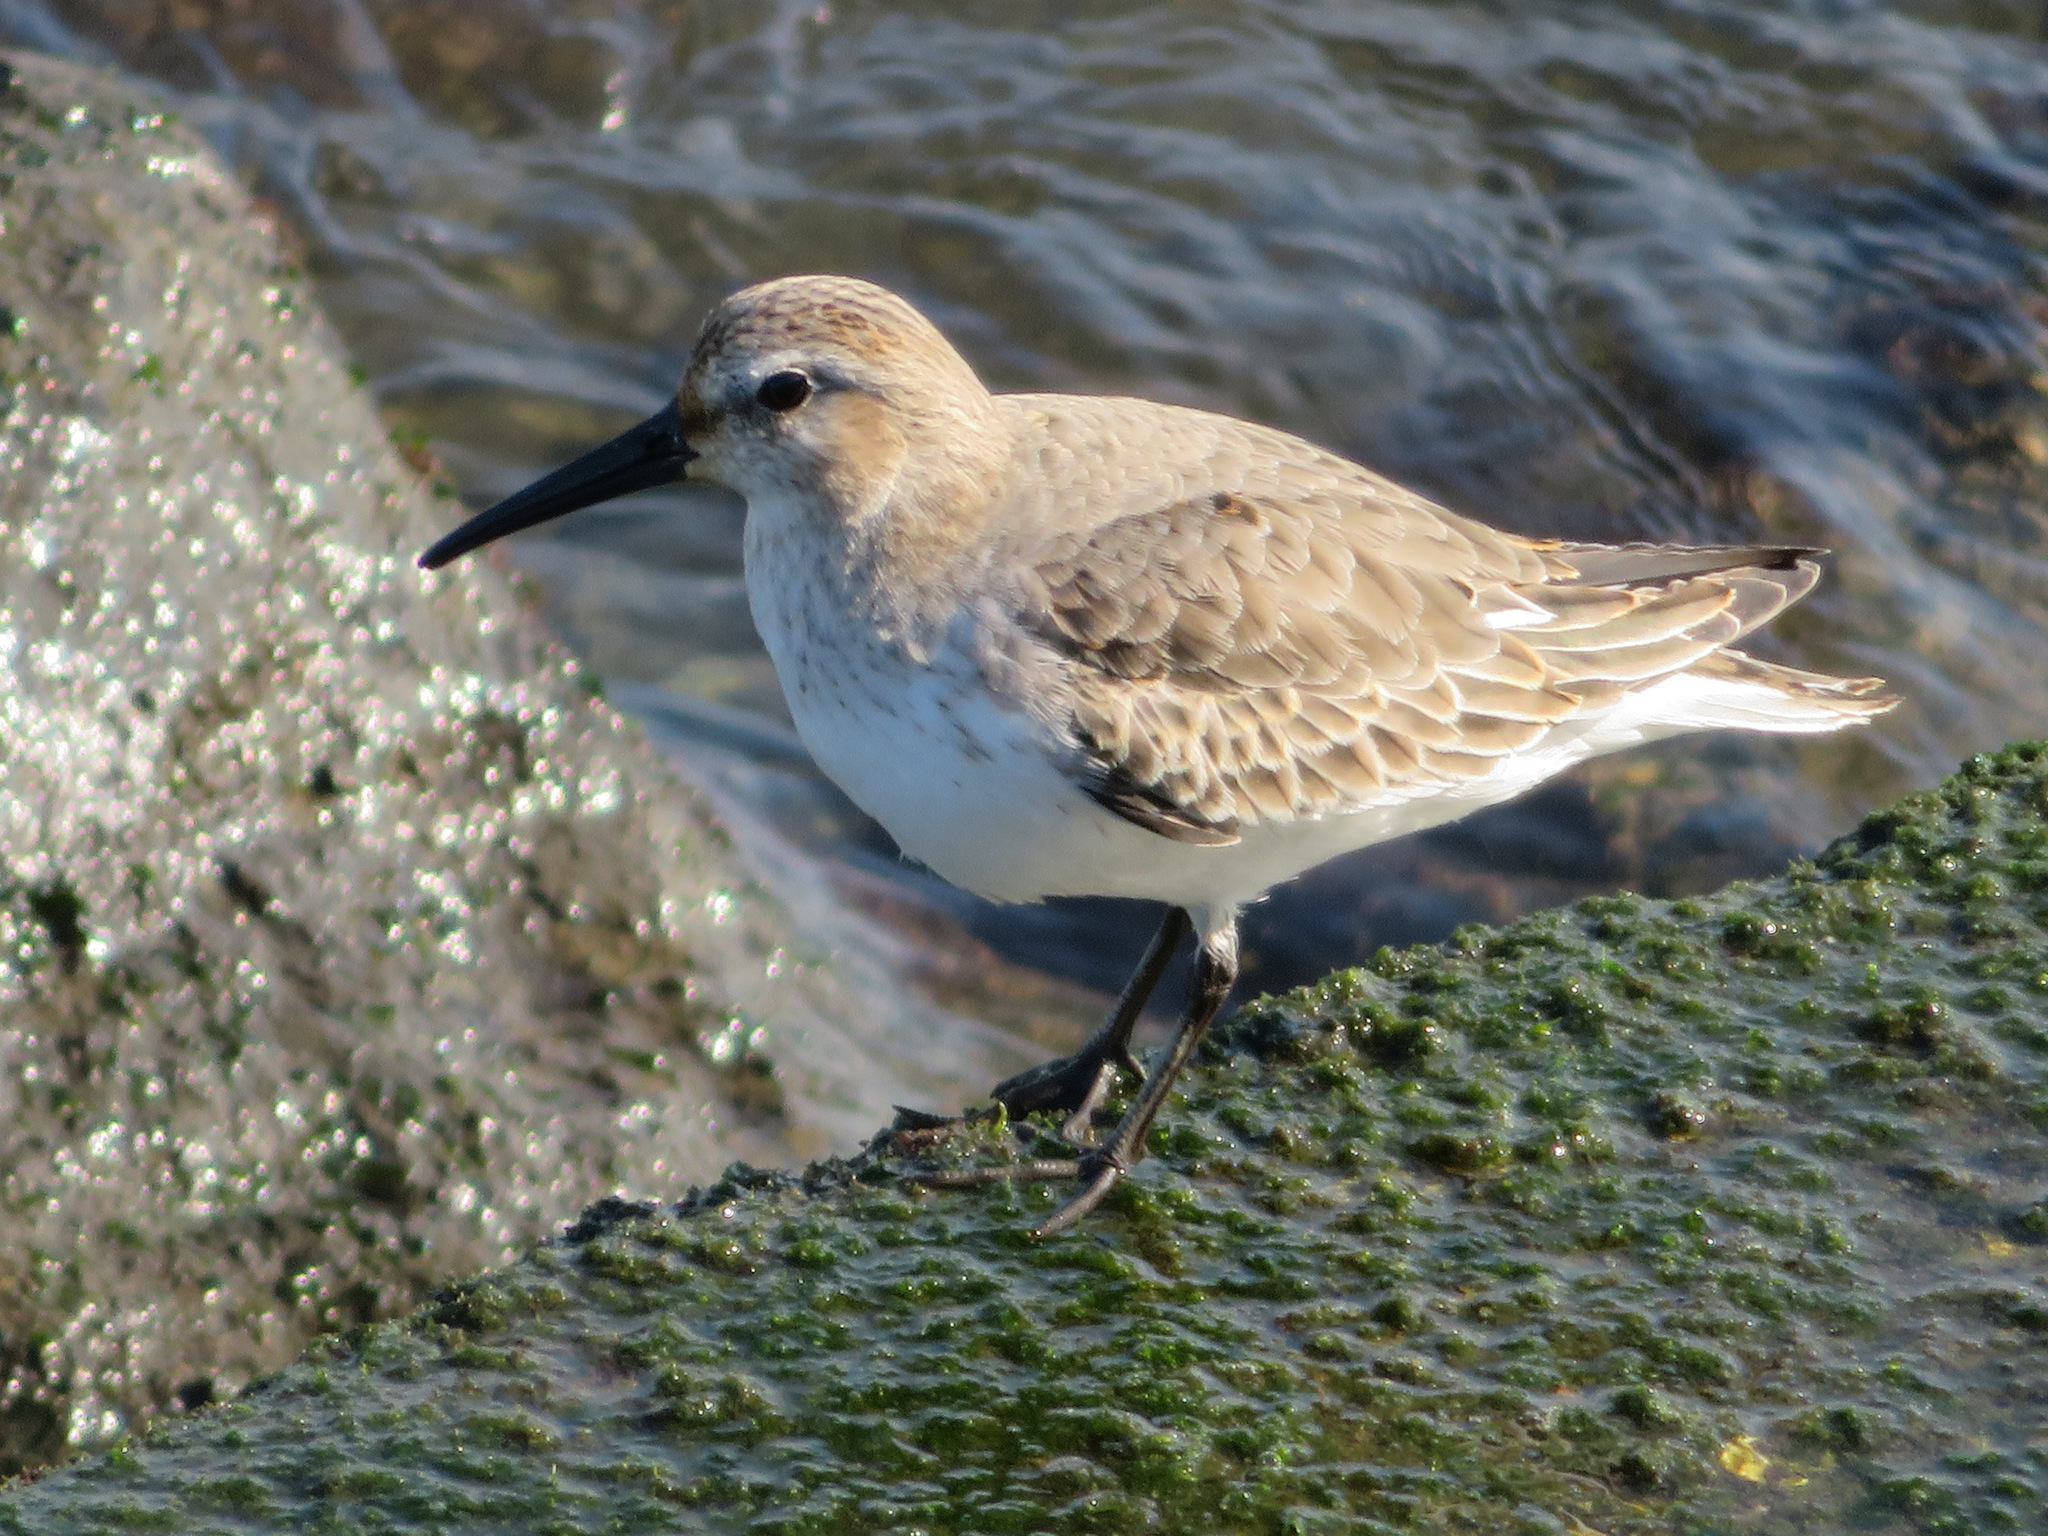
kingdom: Animalia
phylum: Chordata
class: Aves
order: Charadriiformes
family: Scolopacidae
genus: Calidris
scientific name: Calidris alpina
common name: Dunlin
